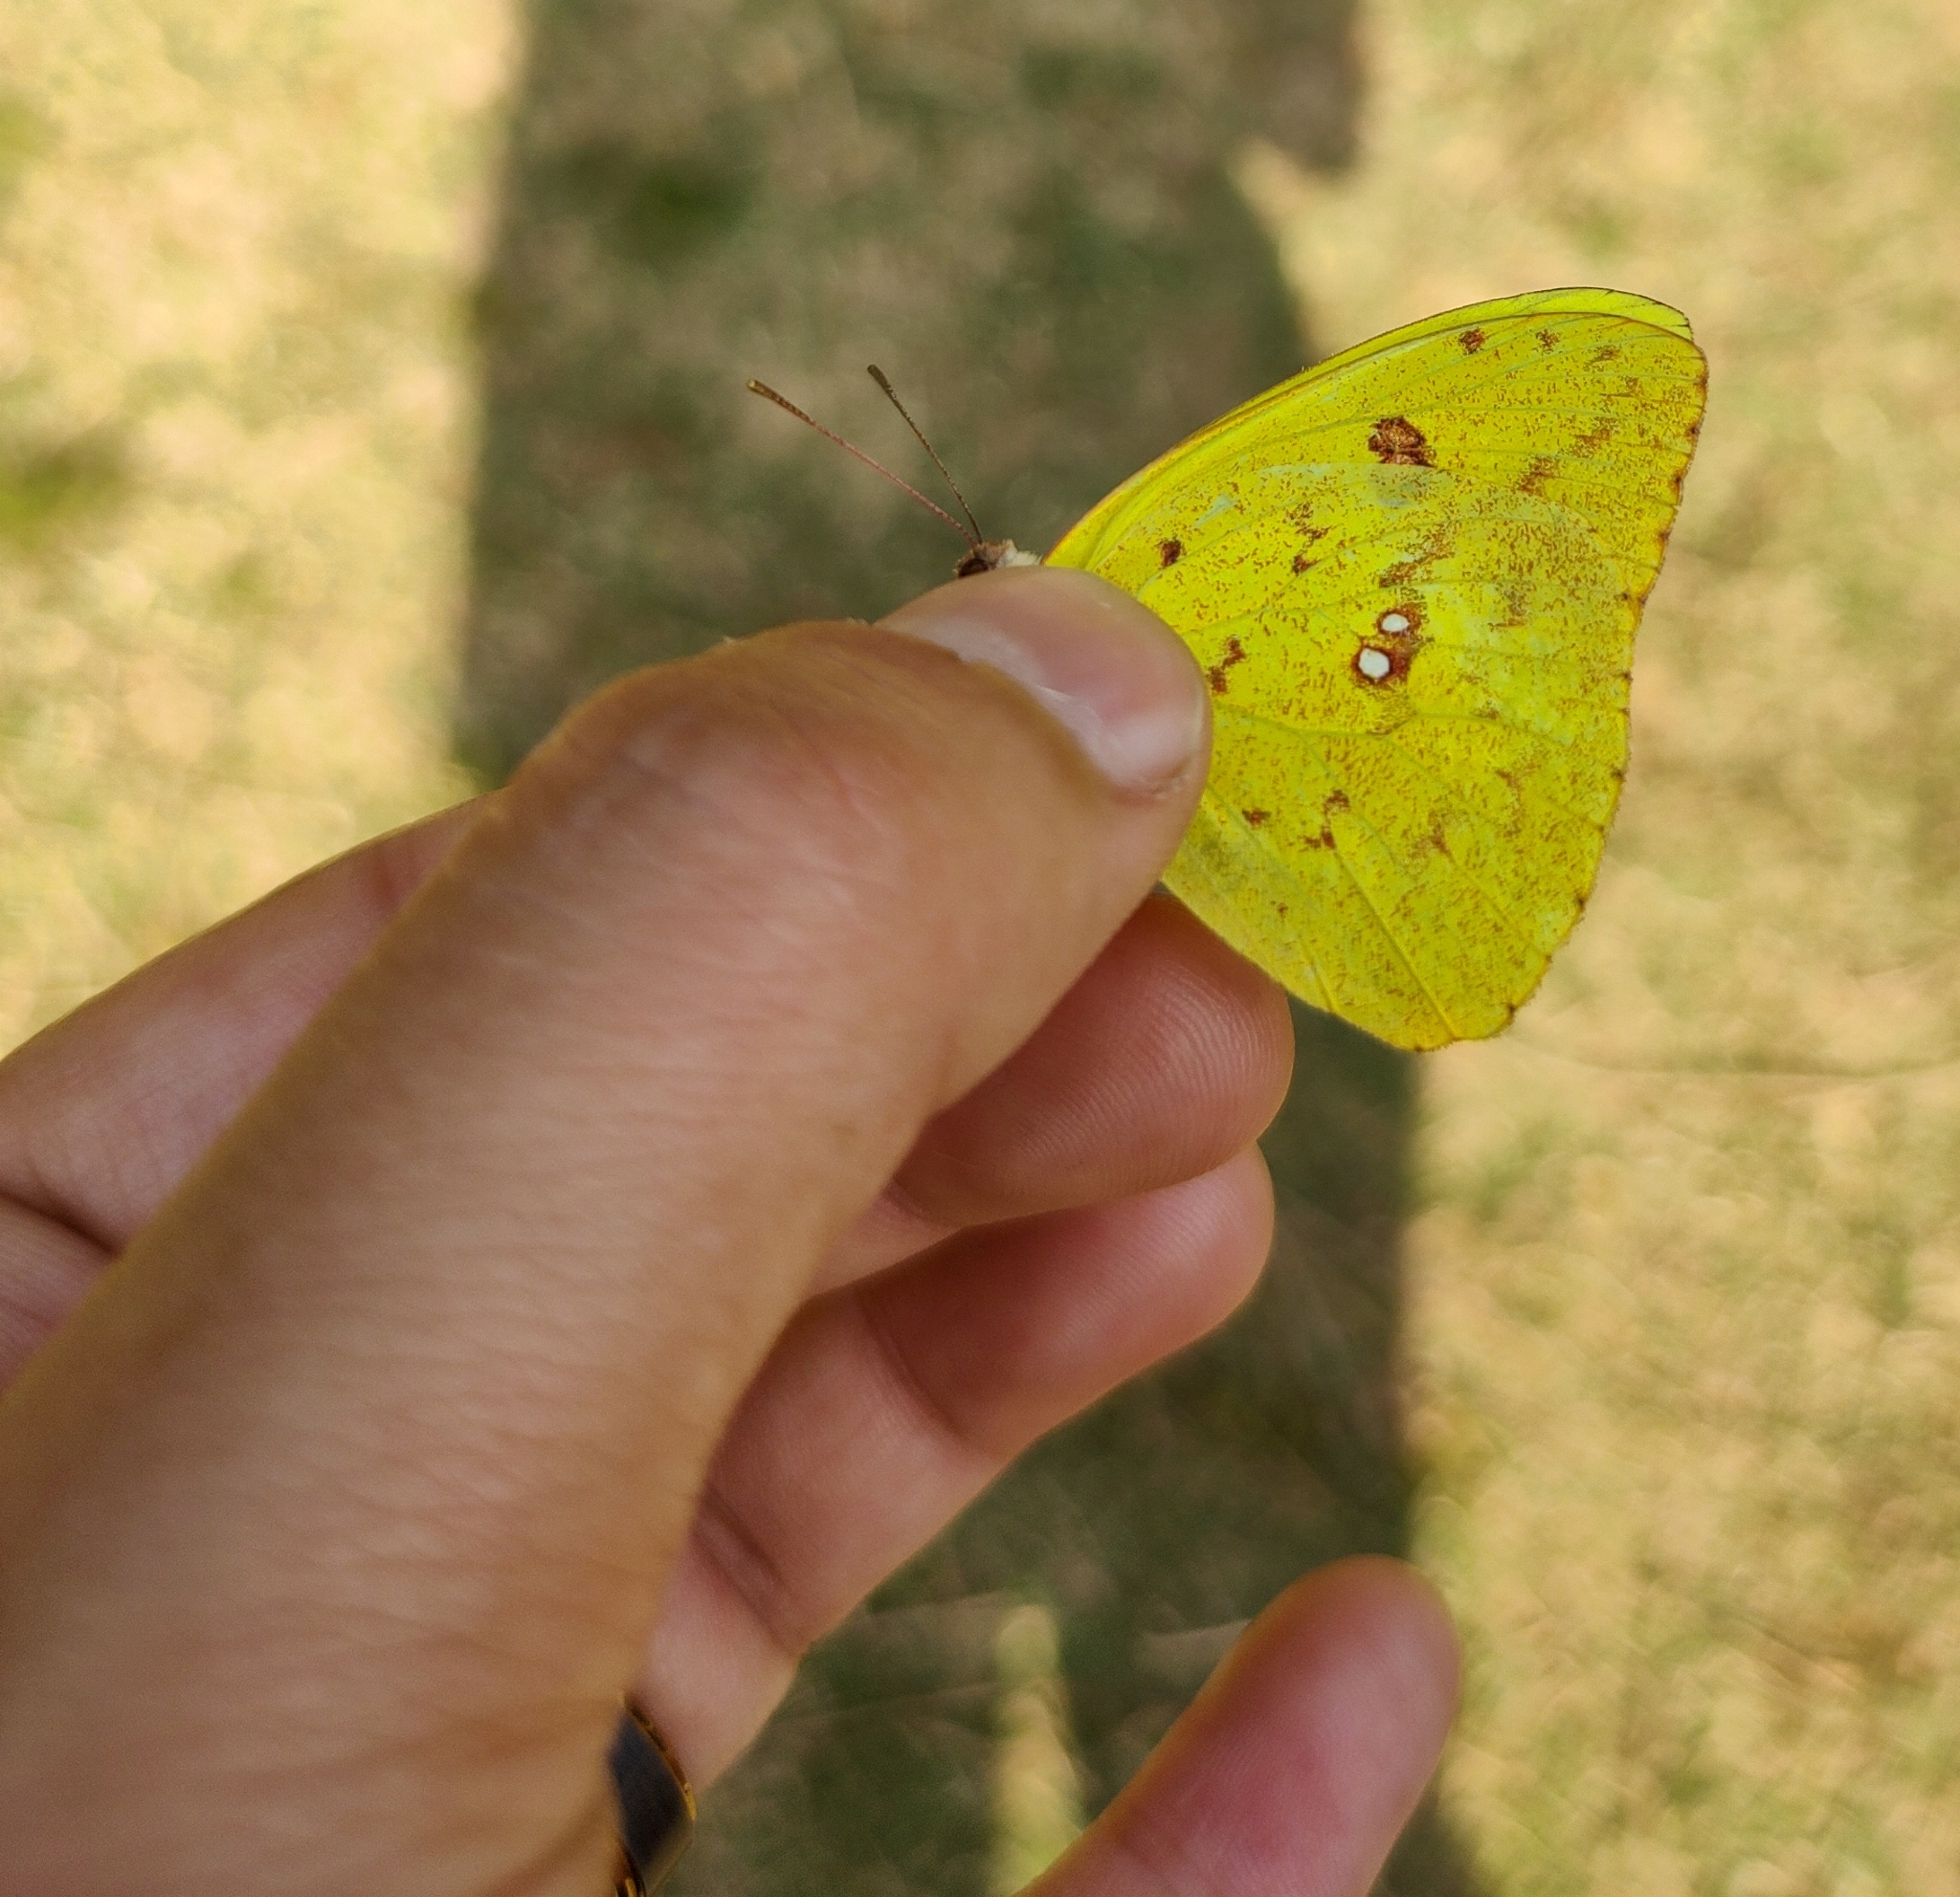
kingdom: Animalia
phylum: Arthropoda
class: Insecta
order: Lepidoptera
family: Pieridae
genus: Phoebis
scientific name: Phoebis marcellina
